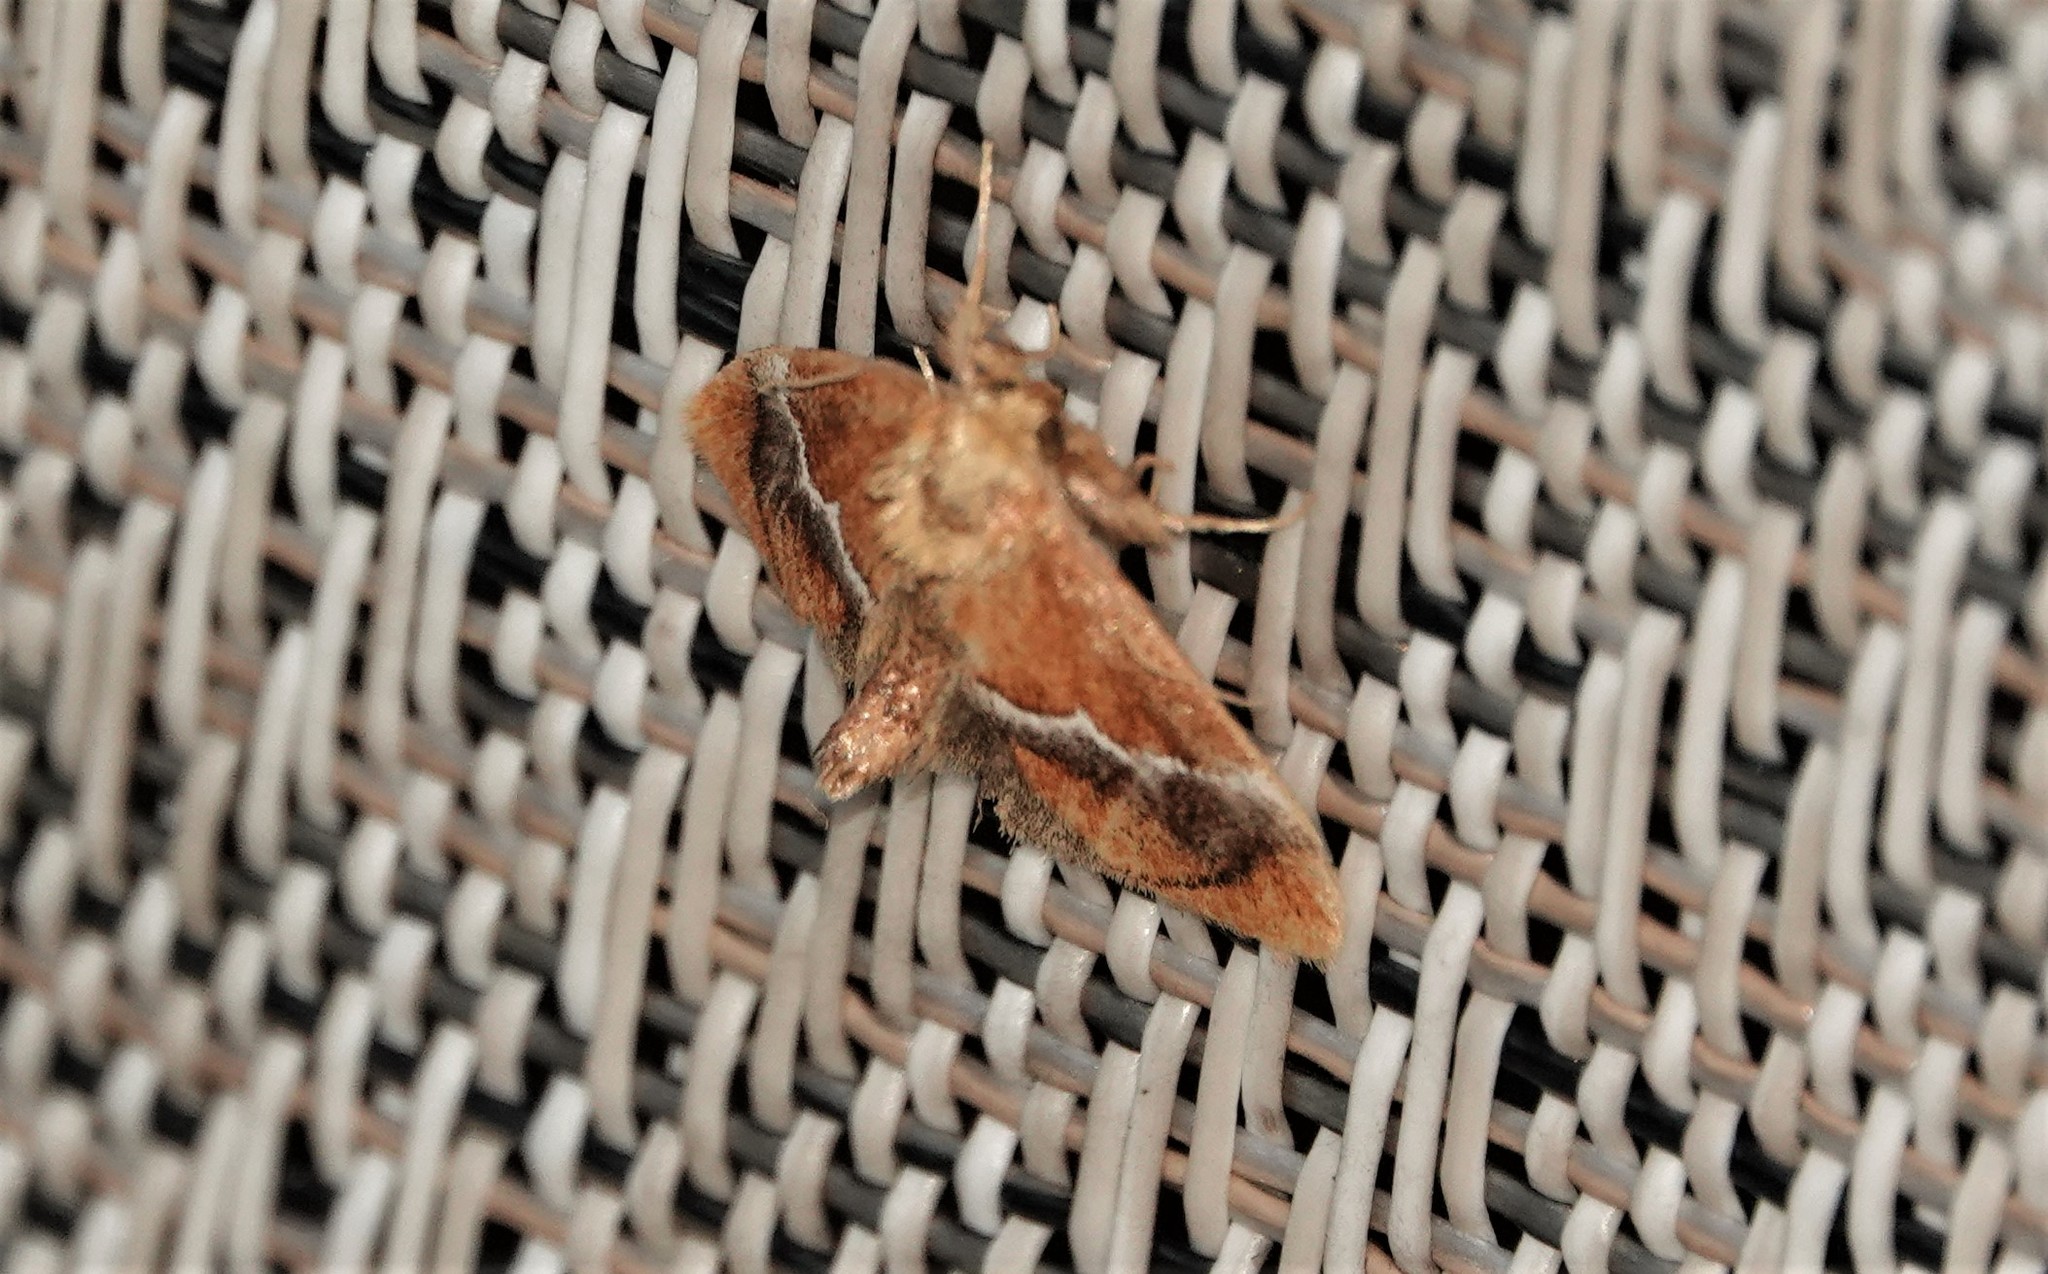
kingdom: Animalia
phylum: Arthropoda
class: Insecta
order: Lepidoptera
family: Limacodidae
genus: Lithacodes
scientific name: Lithacodes fasciola
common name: Yellow-shouldered slug moth
